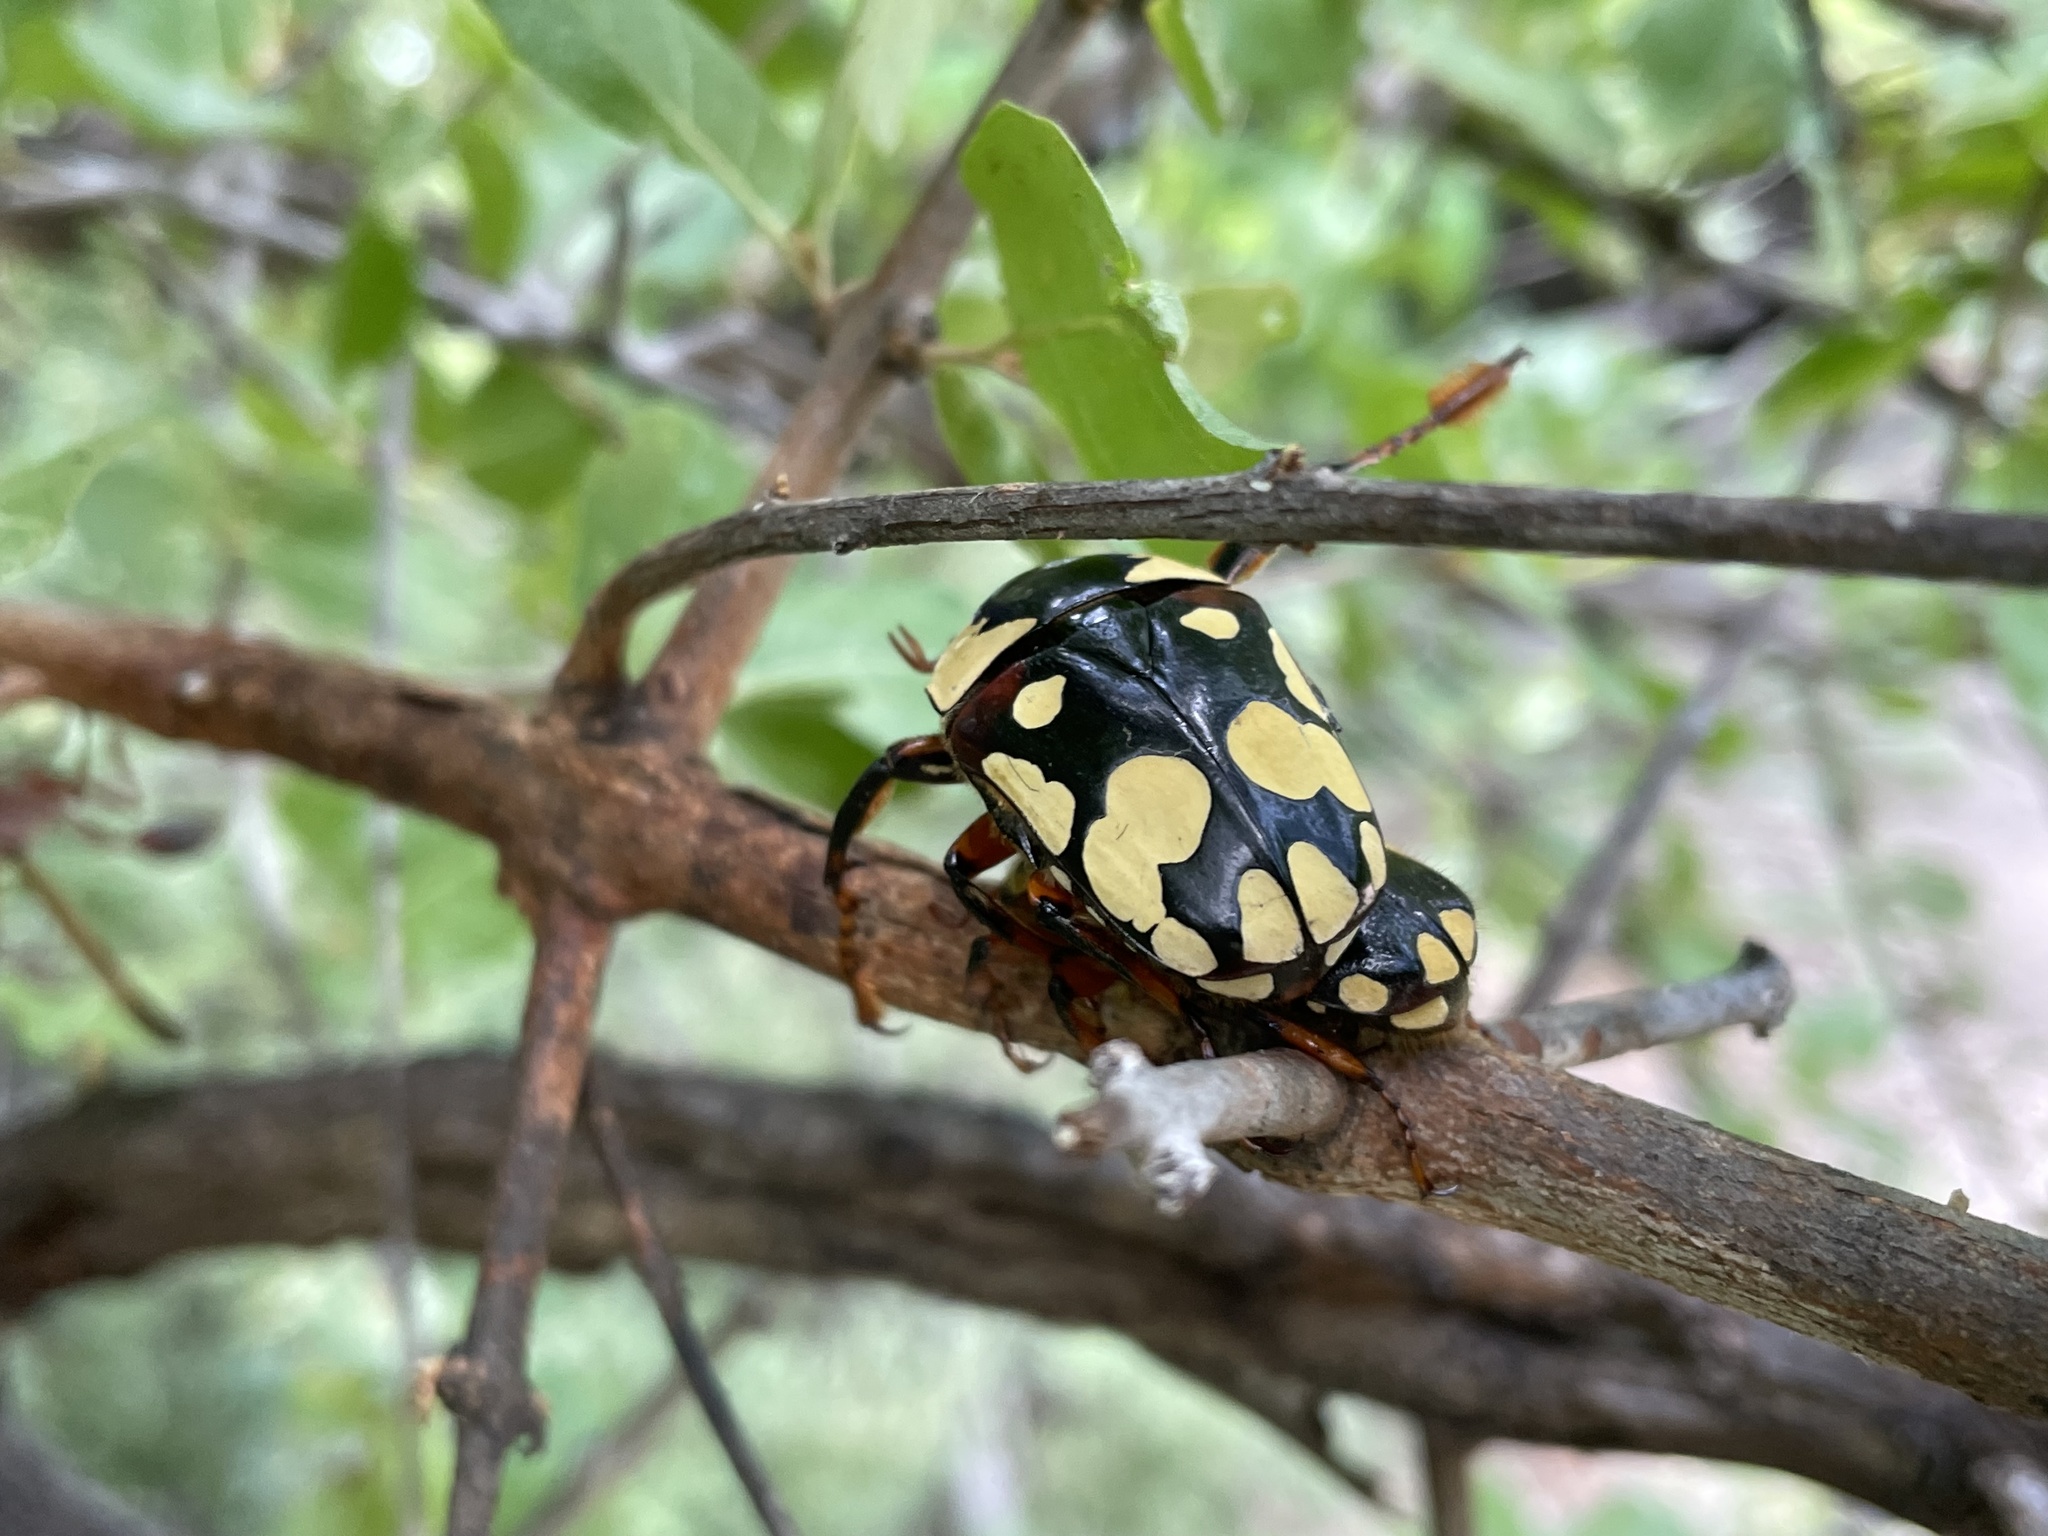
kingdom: Animalia
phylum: Arthropoda
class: Insecta
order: Coleoptera
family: Scarabaeidae
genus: Cheirolasia
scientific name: Cheirolasia burkei
